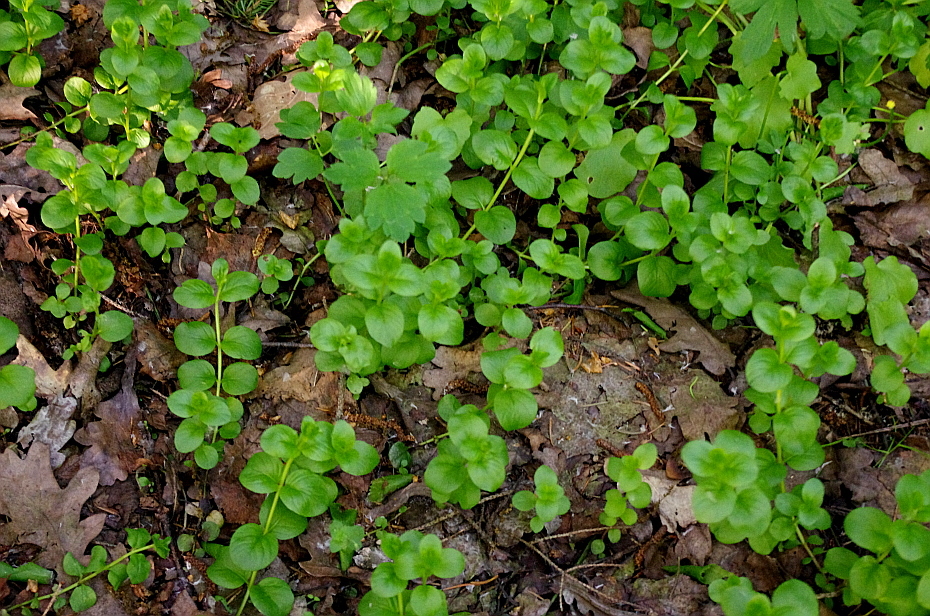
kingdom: Plantae
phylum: Tracheophyta
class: Magnoliopsida
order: Ericales
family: Primulaceae
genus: Lysimachia
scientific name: Lysimachia nummularia
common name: Moneywort
